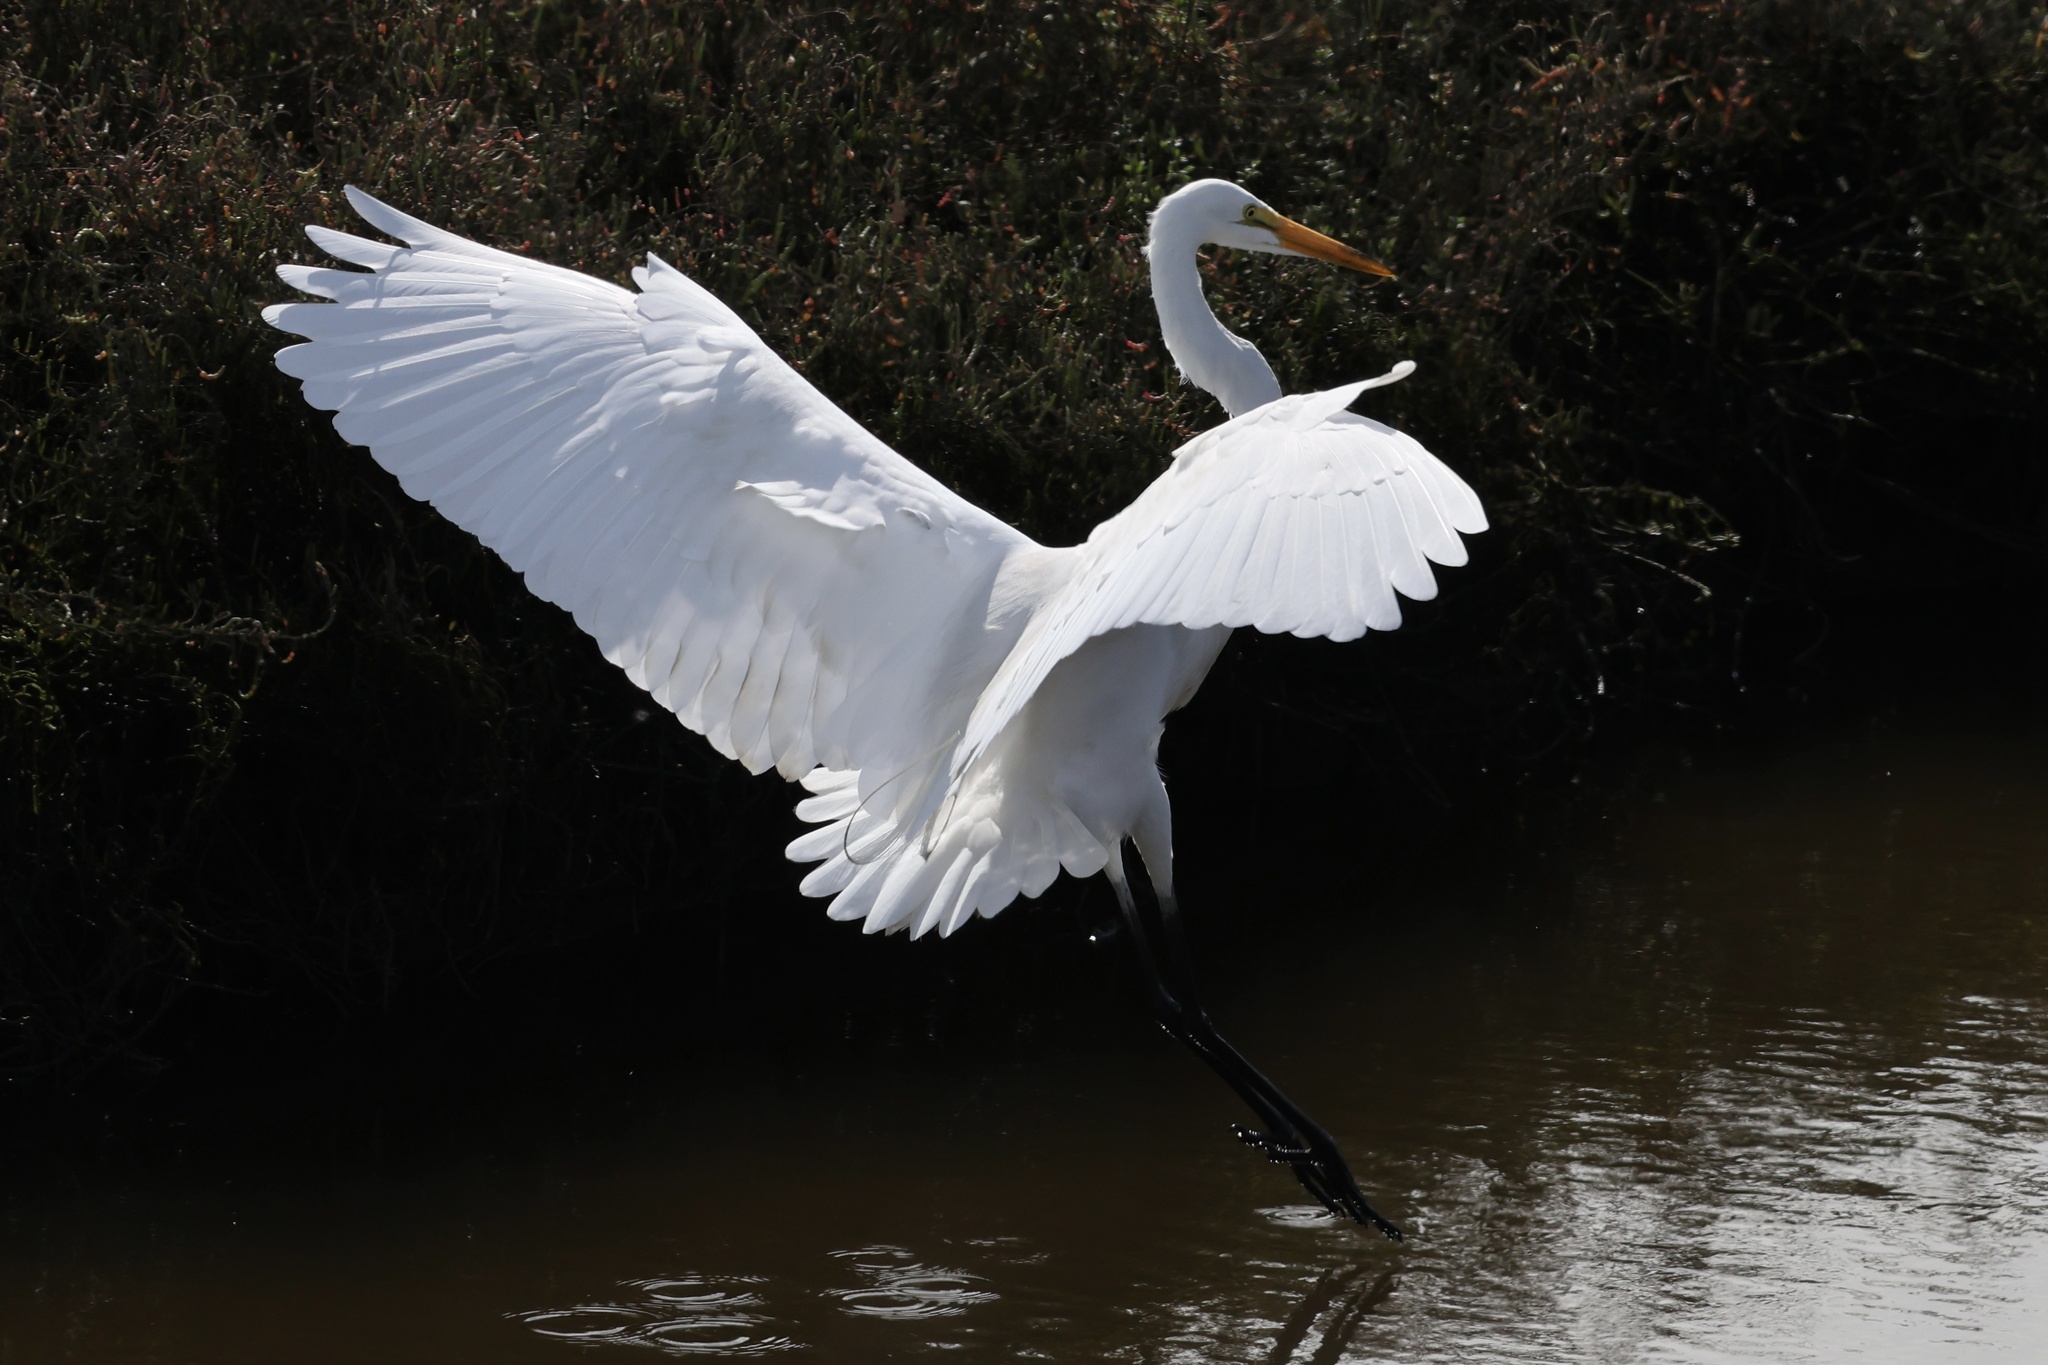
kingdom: Animalia
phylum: Chordata
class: Aves
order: Pelecaniformes
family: Ardeidae
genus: Ardea
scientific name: Ardea alba
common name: Great egret
